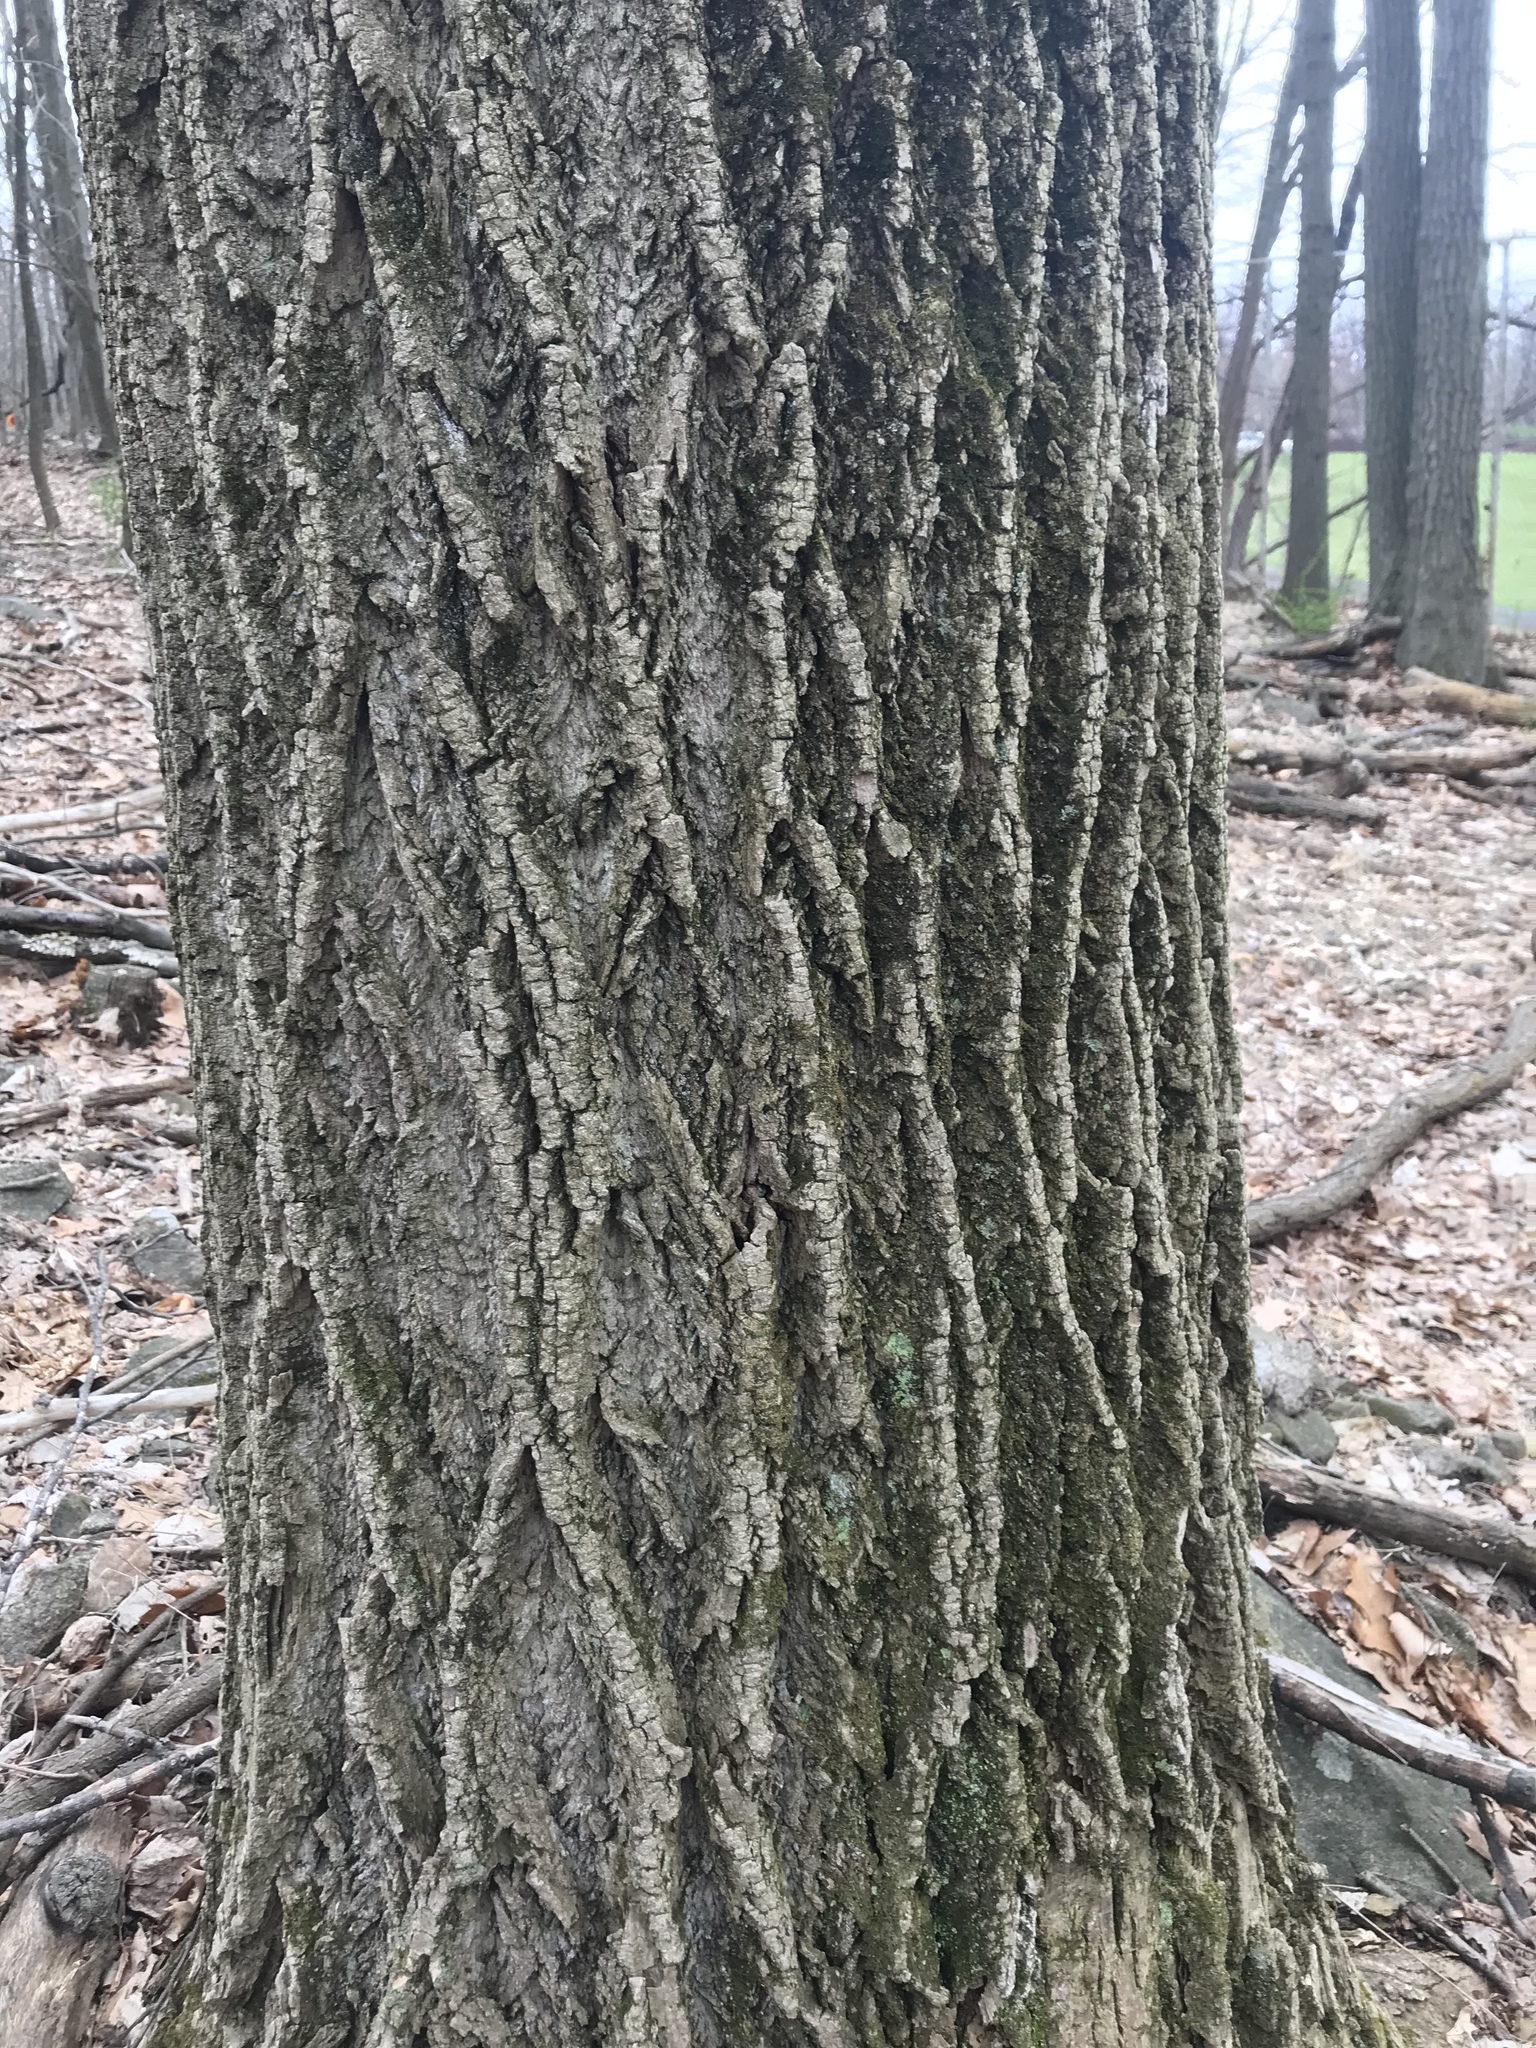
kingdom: Plantae
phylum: Tracheophyta
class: Magnoliopsida
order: Magnoliales
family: Magnoliaceae
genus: Liriodendron
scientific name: Liriodendron tulipifera
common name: Tulip tree
